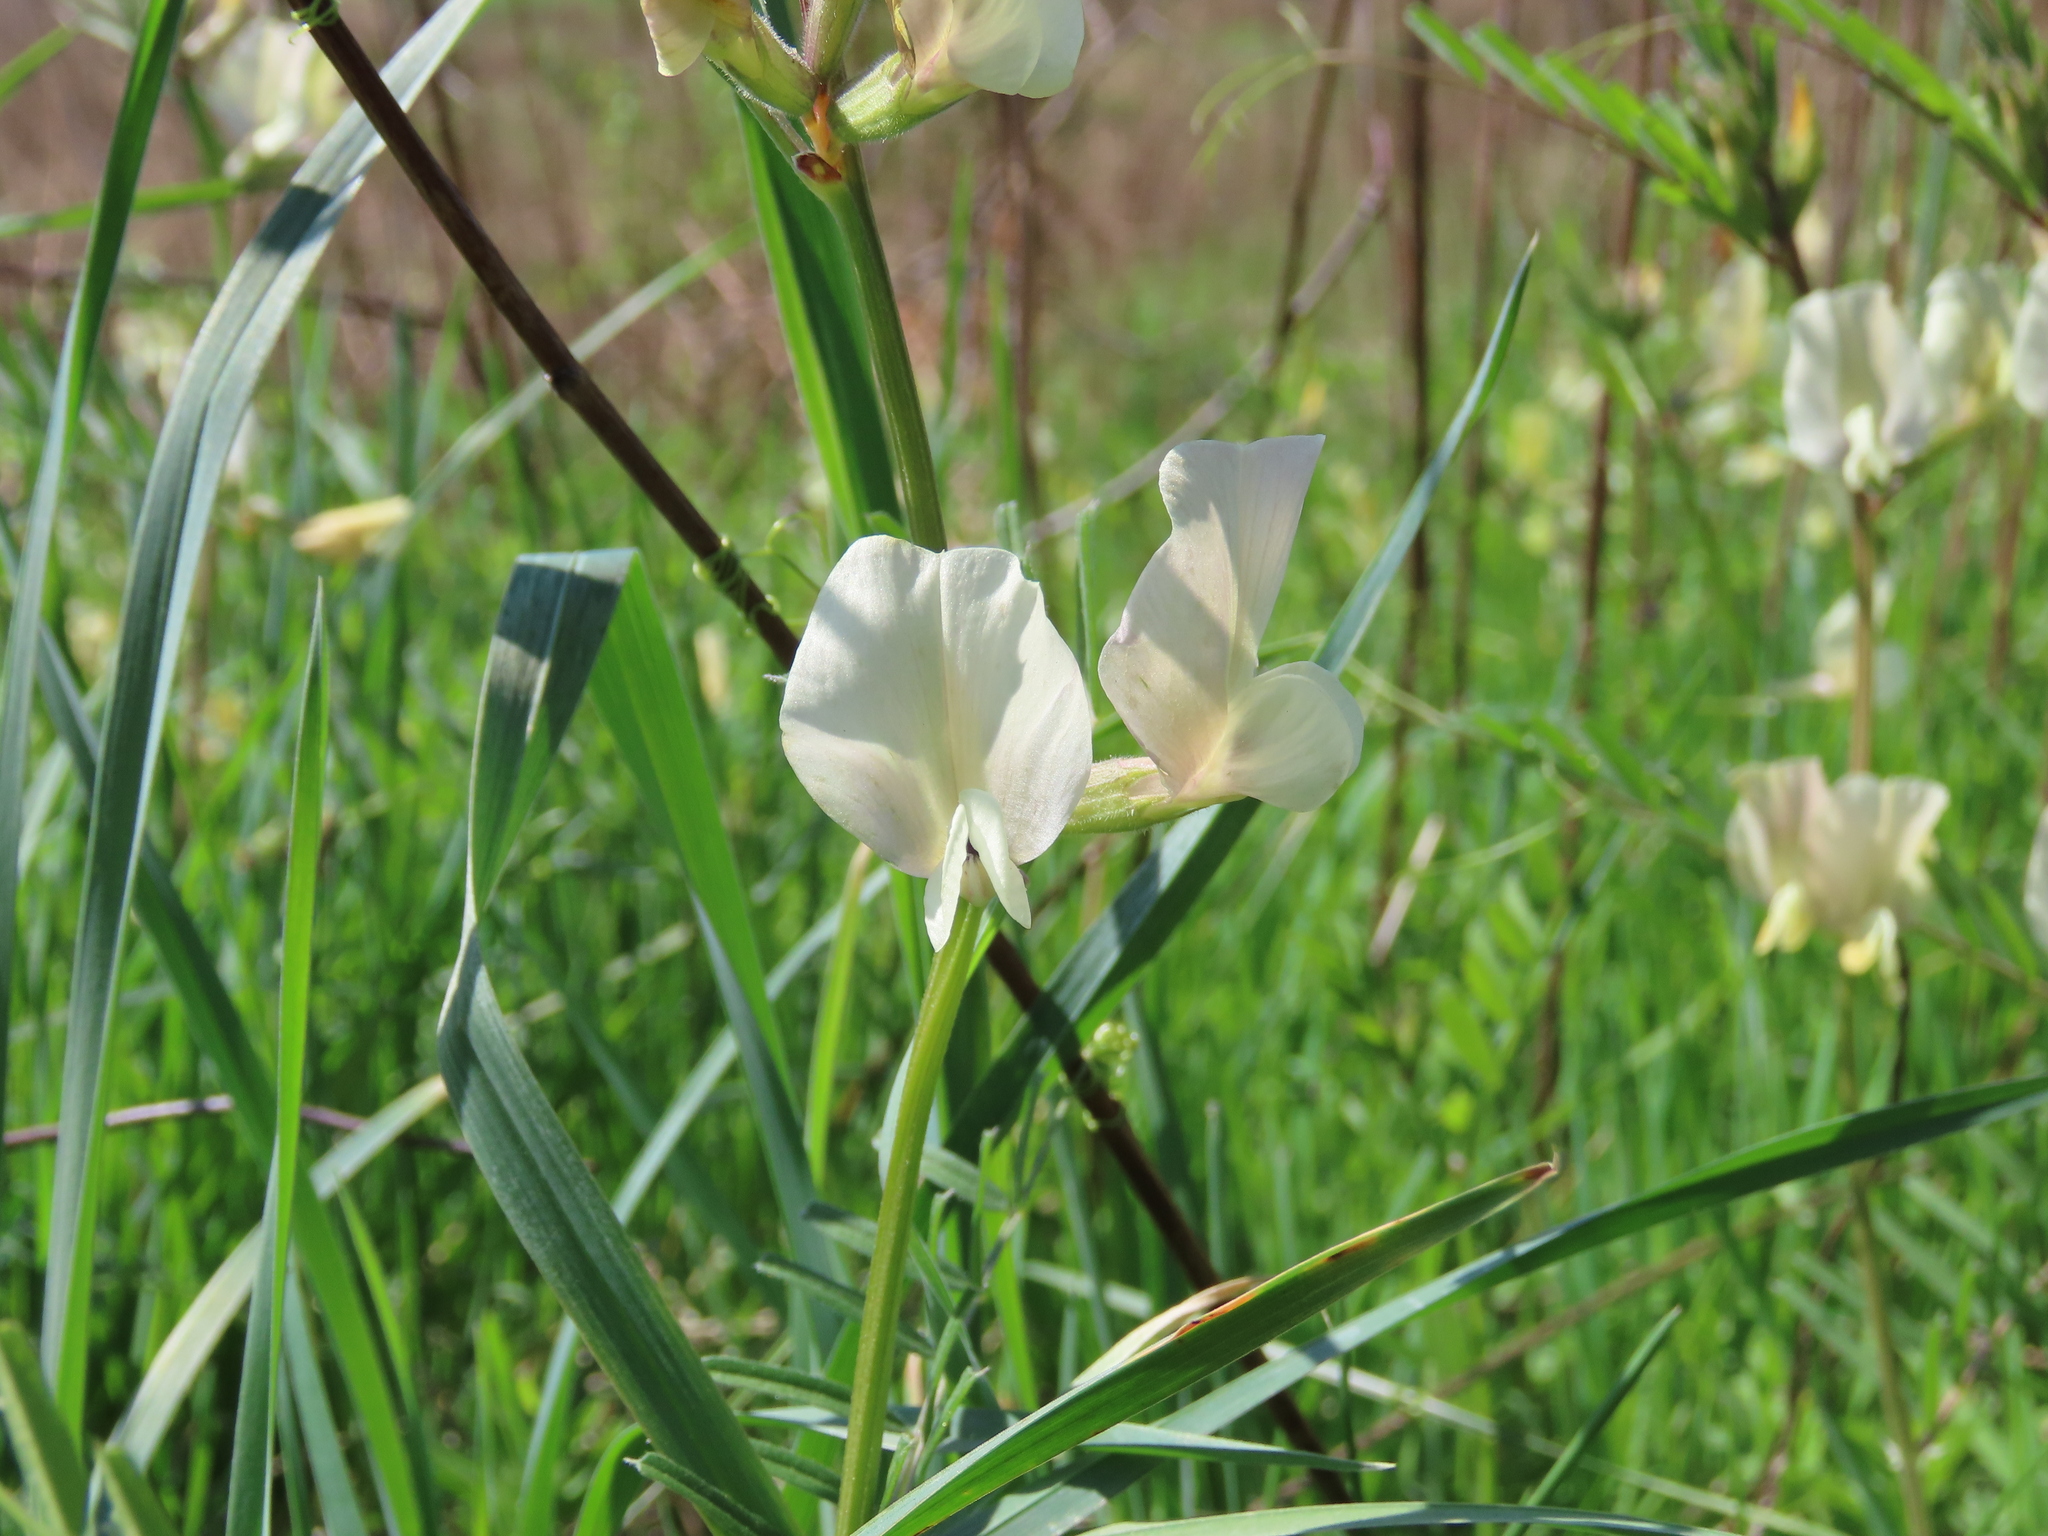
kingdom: Plantae
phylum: Tracheophyta
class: Magnoliopsida
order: Fabales
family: Fabaceae
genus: Vicia
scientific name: Vicia grandiflora
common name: Large yellow vetch
